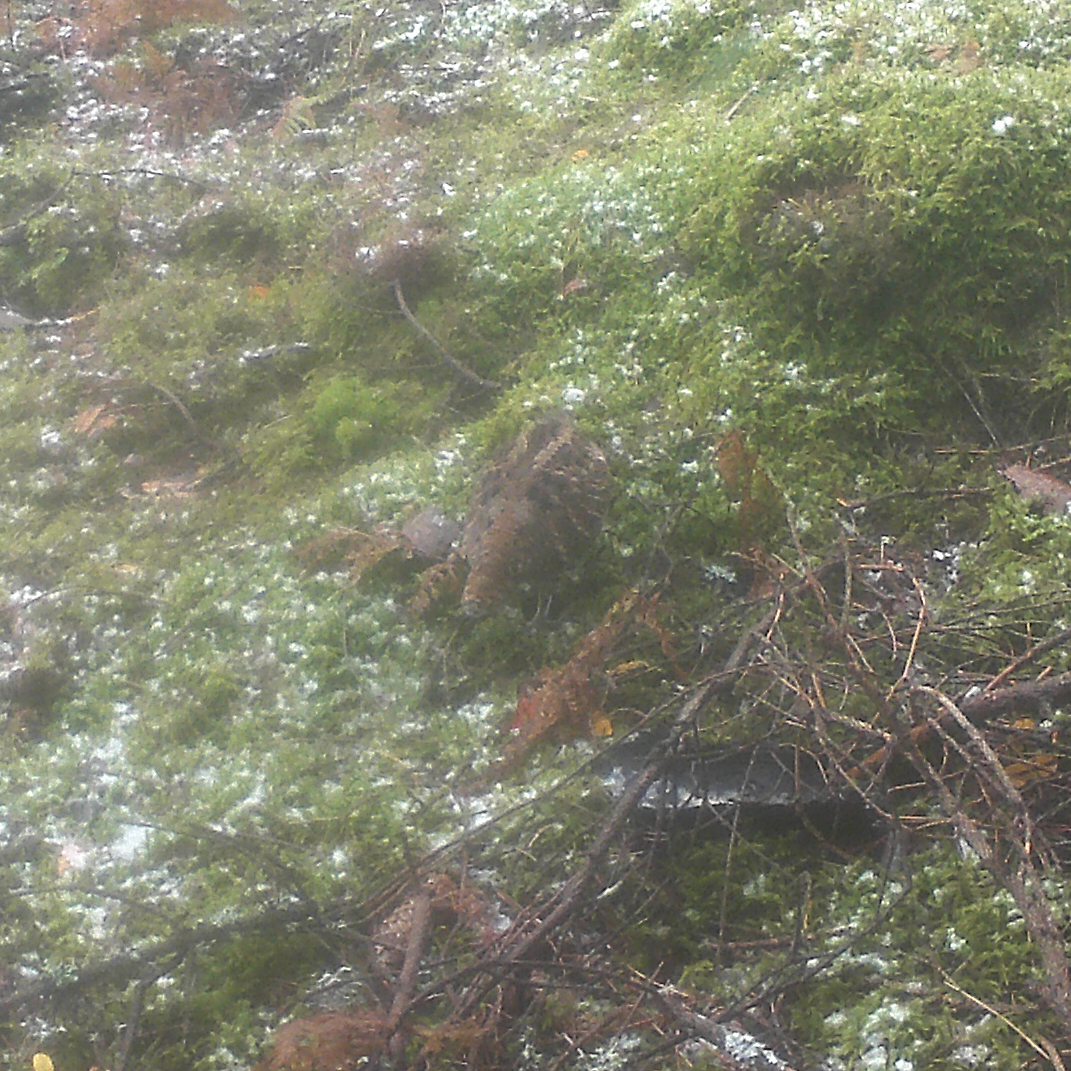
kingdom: Animalia
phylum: Chordata
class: Aves
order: Charadriiformes
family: Scolopacidae
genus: Scolopax
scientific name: Scolopax rusticola
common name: Eurasian woodcock
